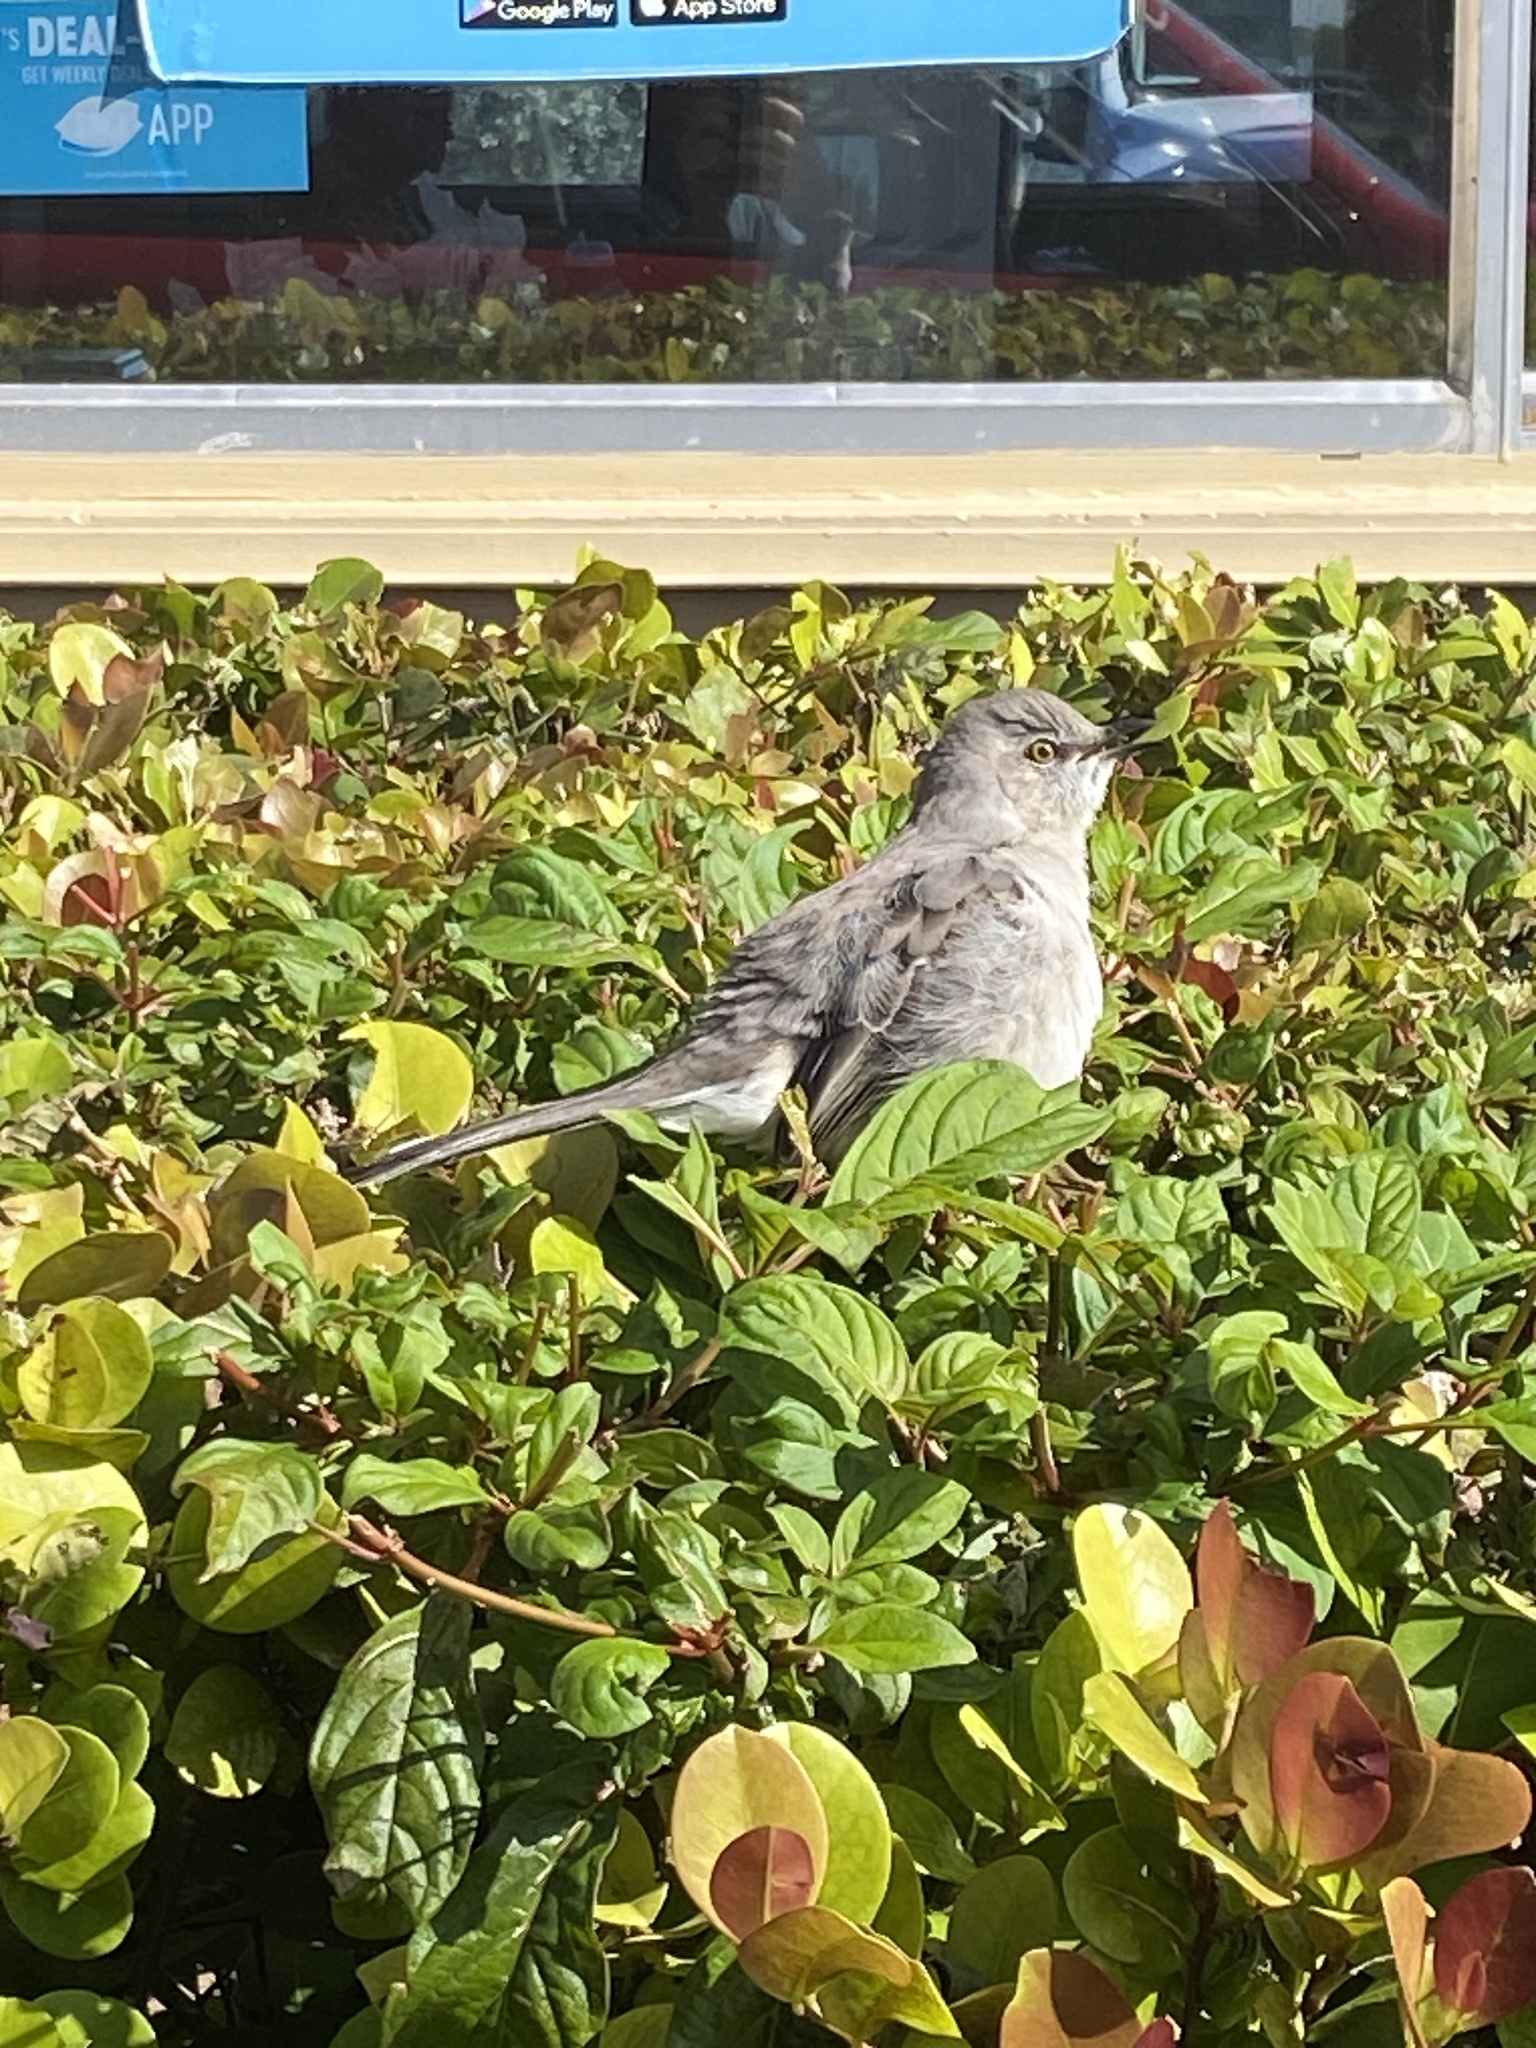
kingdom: Animalia
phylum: Chordata
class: Aves
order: Passeriformes
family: Mimidae
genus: Mimus
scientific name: Mimus polyglottos
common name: Northern mockingbird
